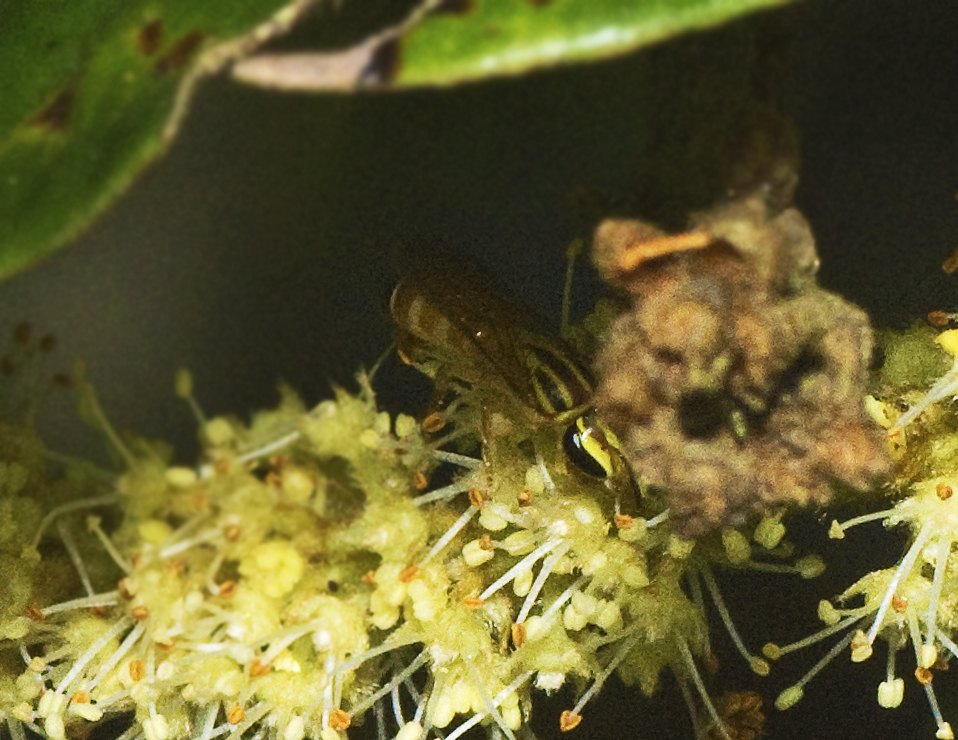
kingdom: Animalia
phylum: Arthropoda
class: Insecta
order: Hymenoptera
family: Colletidae
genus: Palaeorhiza
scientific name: Palaeorhiza basilura
